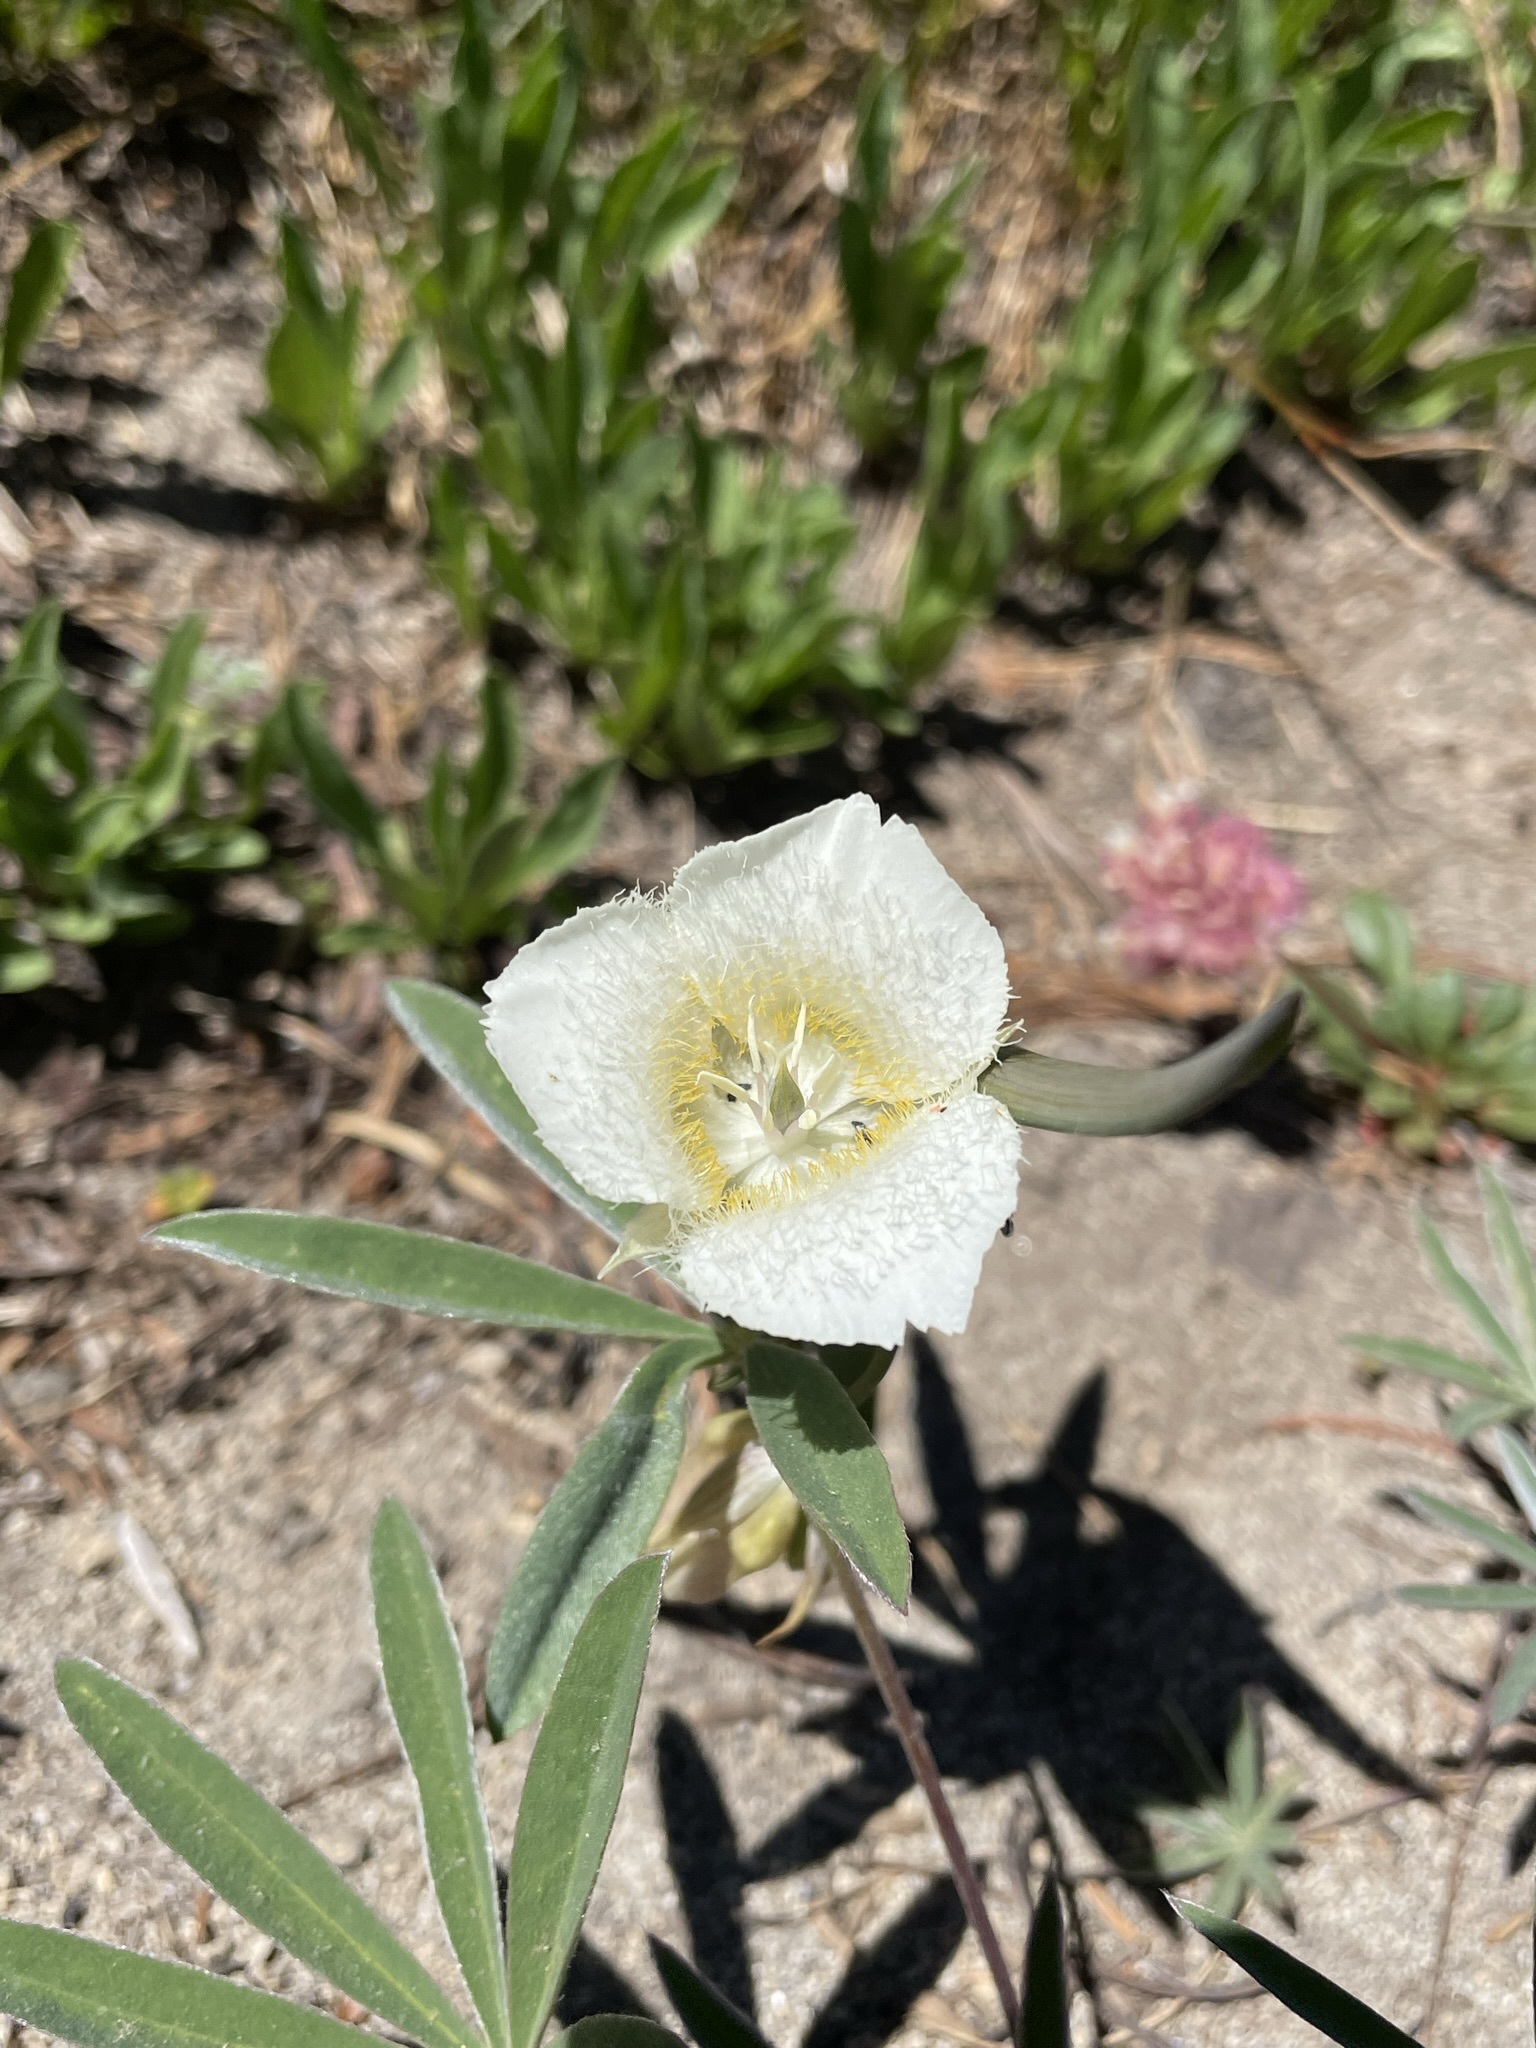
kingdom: Plantae
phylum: Tracheophyta
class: Liliopsida
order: Liliales
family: Liliaceae
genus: Calochortus
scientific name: Calochortus subalpinus
